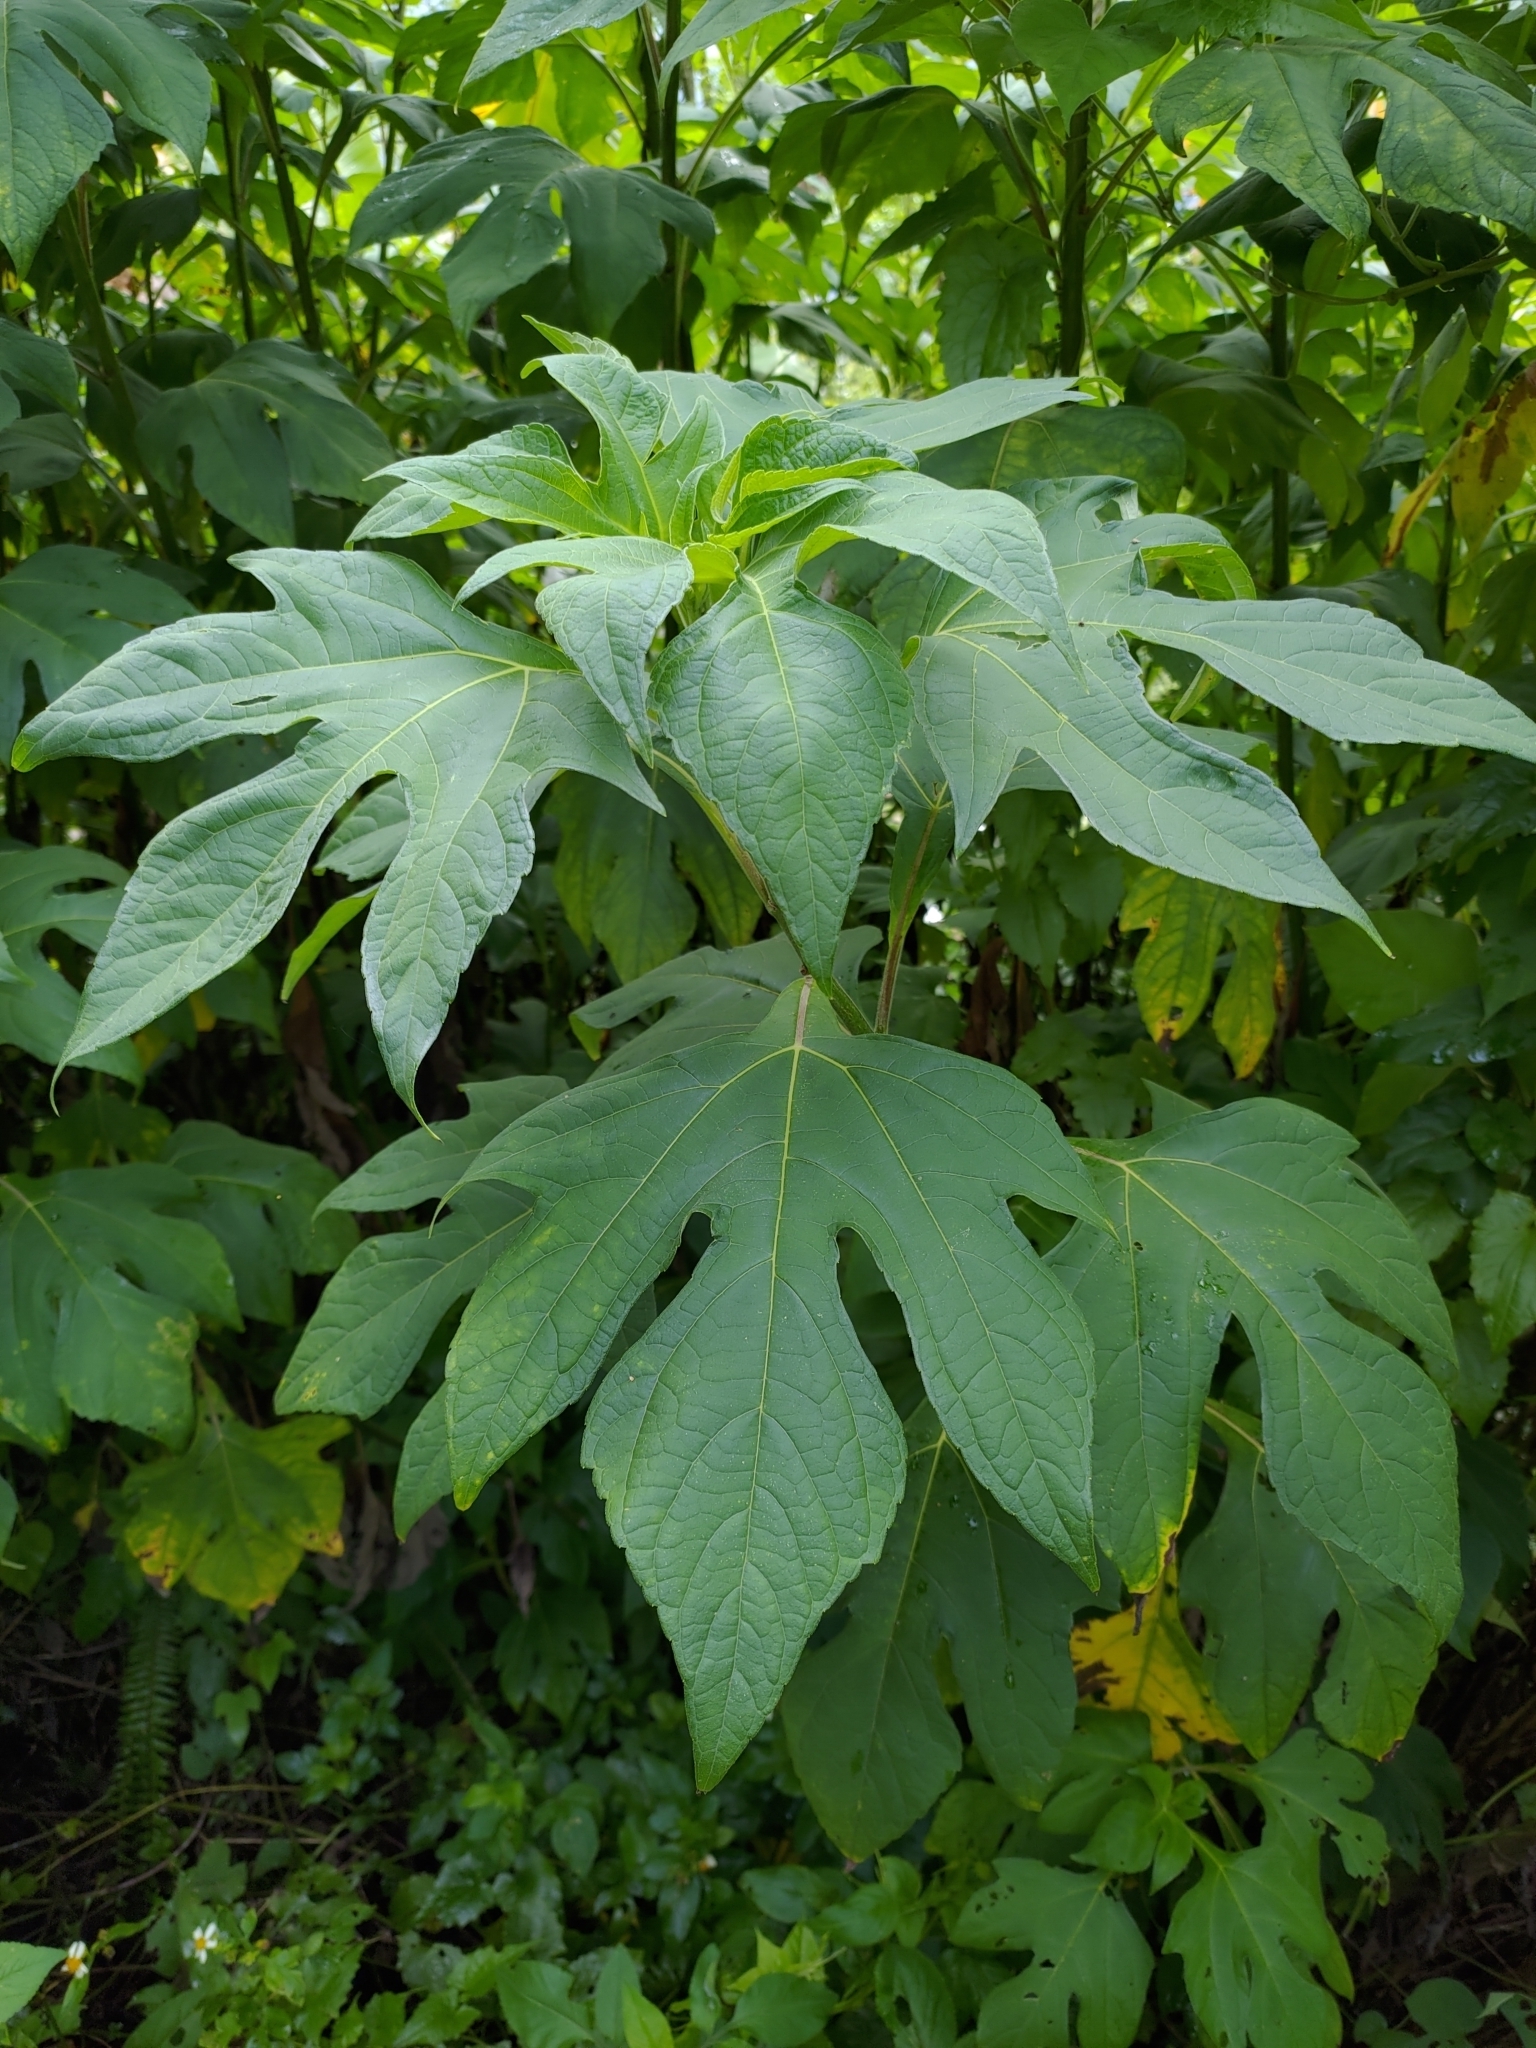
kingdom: Plantae
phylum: Tracheophyta
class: Magnoliopsida
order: Asterales
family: Asteraceae
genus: Tithonia
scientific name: Tithonia diversifolia
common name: Tree marigold
